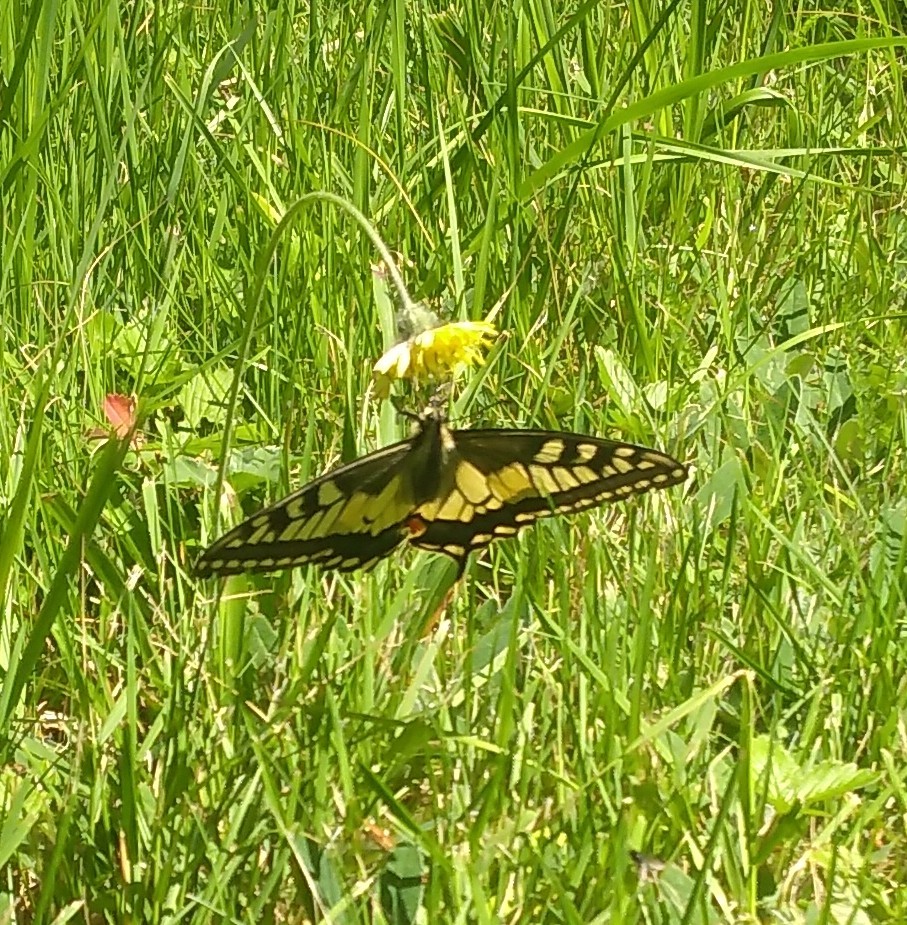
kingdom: Animalia
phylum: Arthropoda
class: Insecta
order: Lepidoptera
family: Papilionidae
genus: Papilio
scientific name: Papilio machaon
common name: Swallowtail
